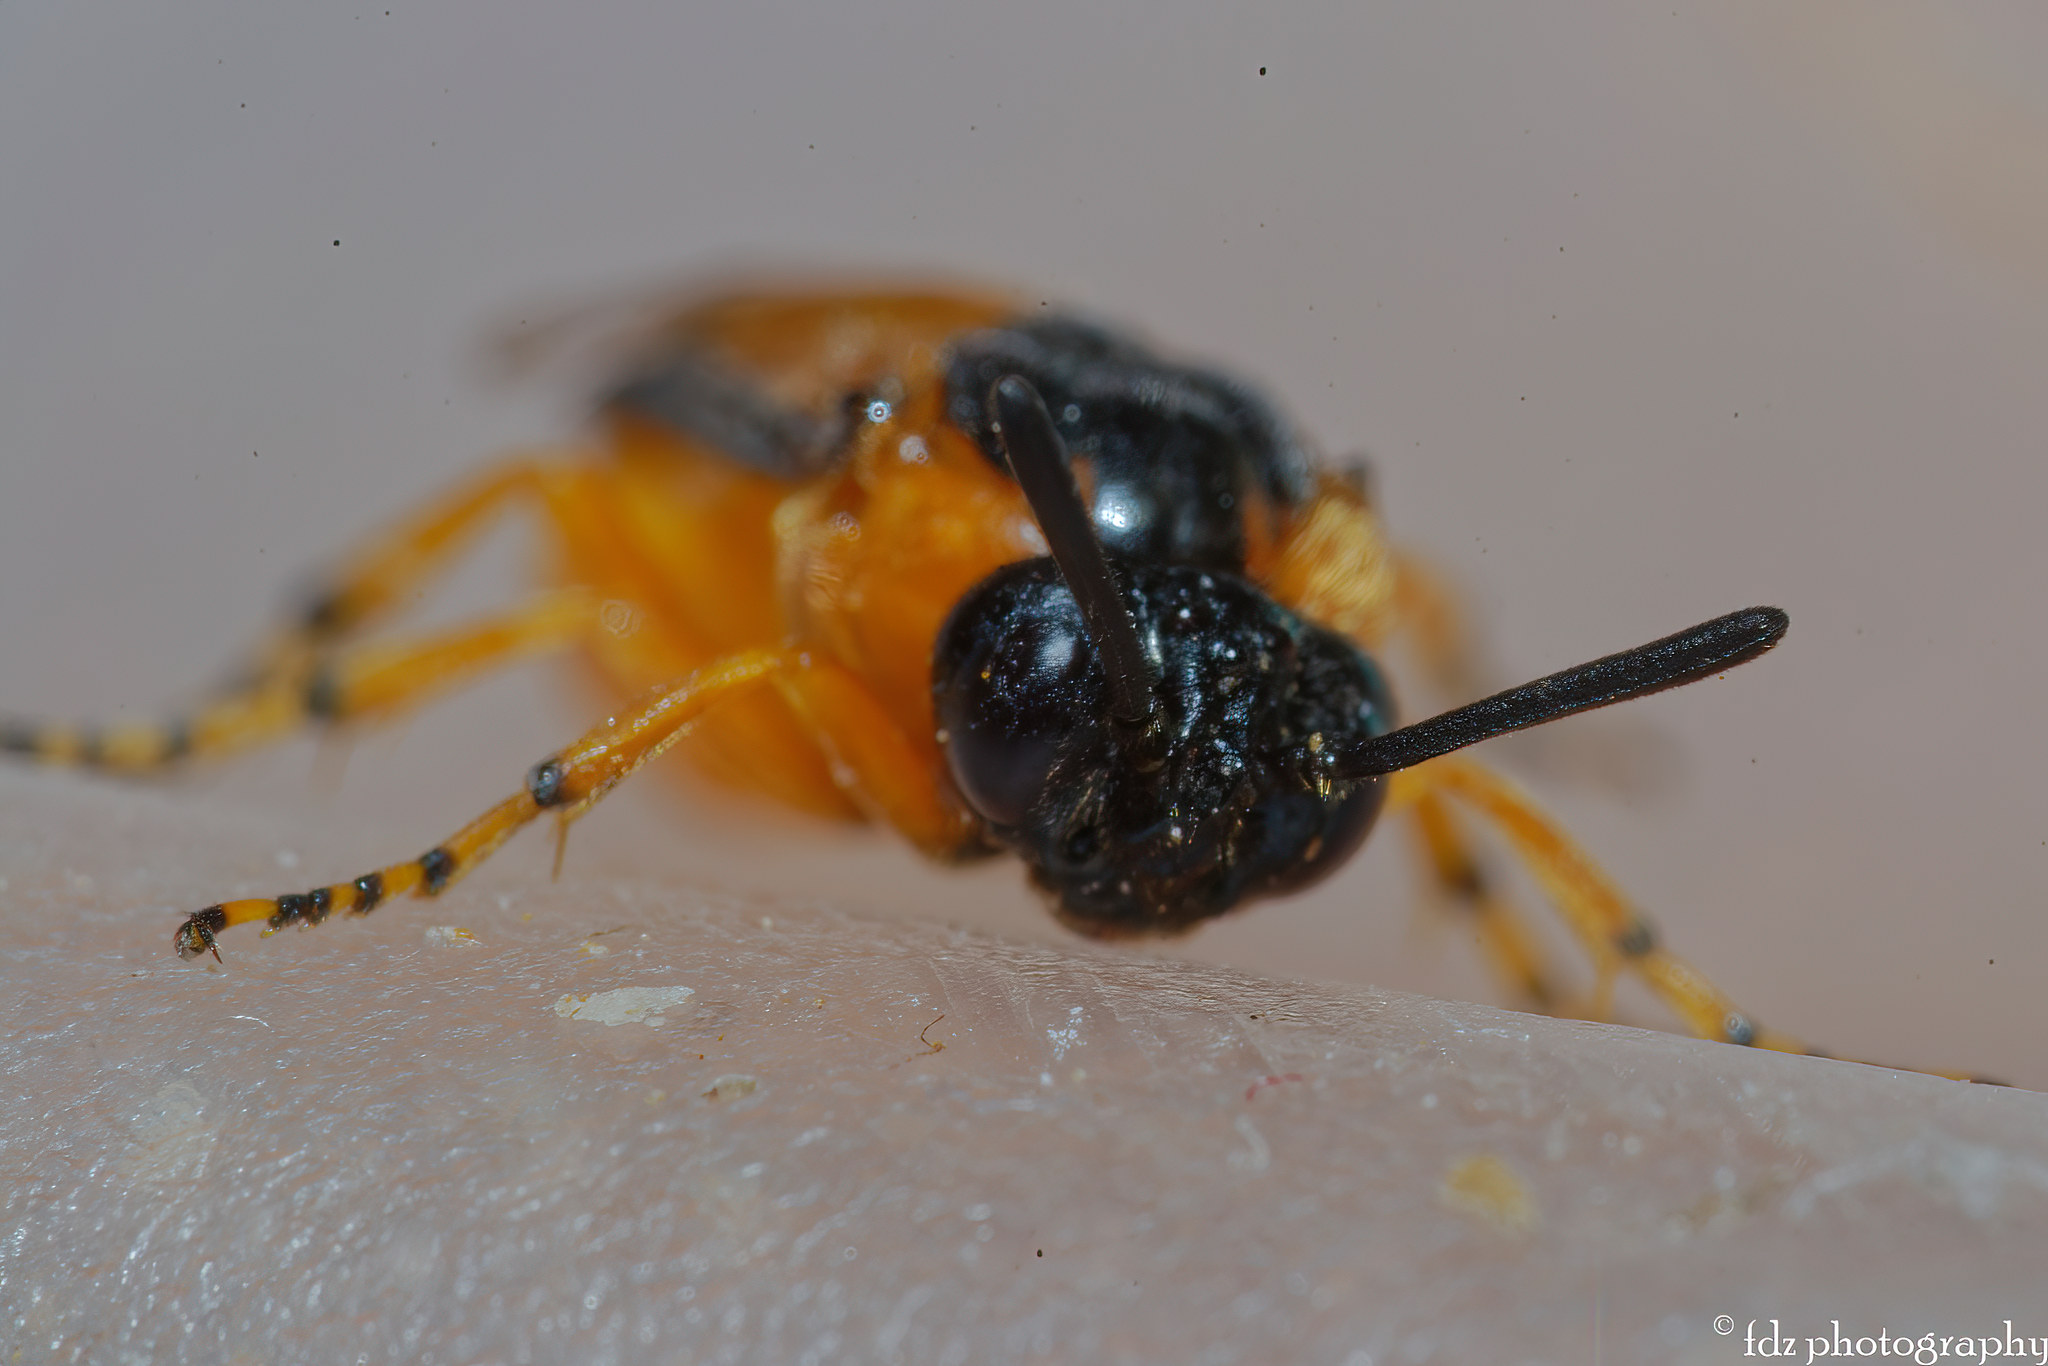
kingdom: Animalia
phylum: Arthropoda
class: Insecta
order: Hymenoptera
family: Argidae
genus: Arge
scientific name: Arge ochropus
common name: Argid sawfly
